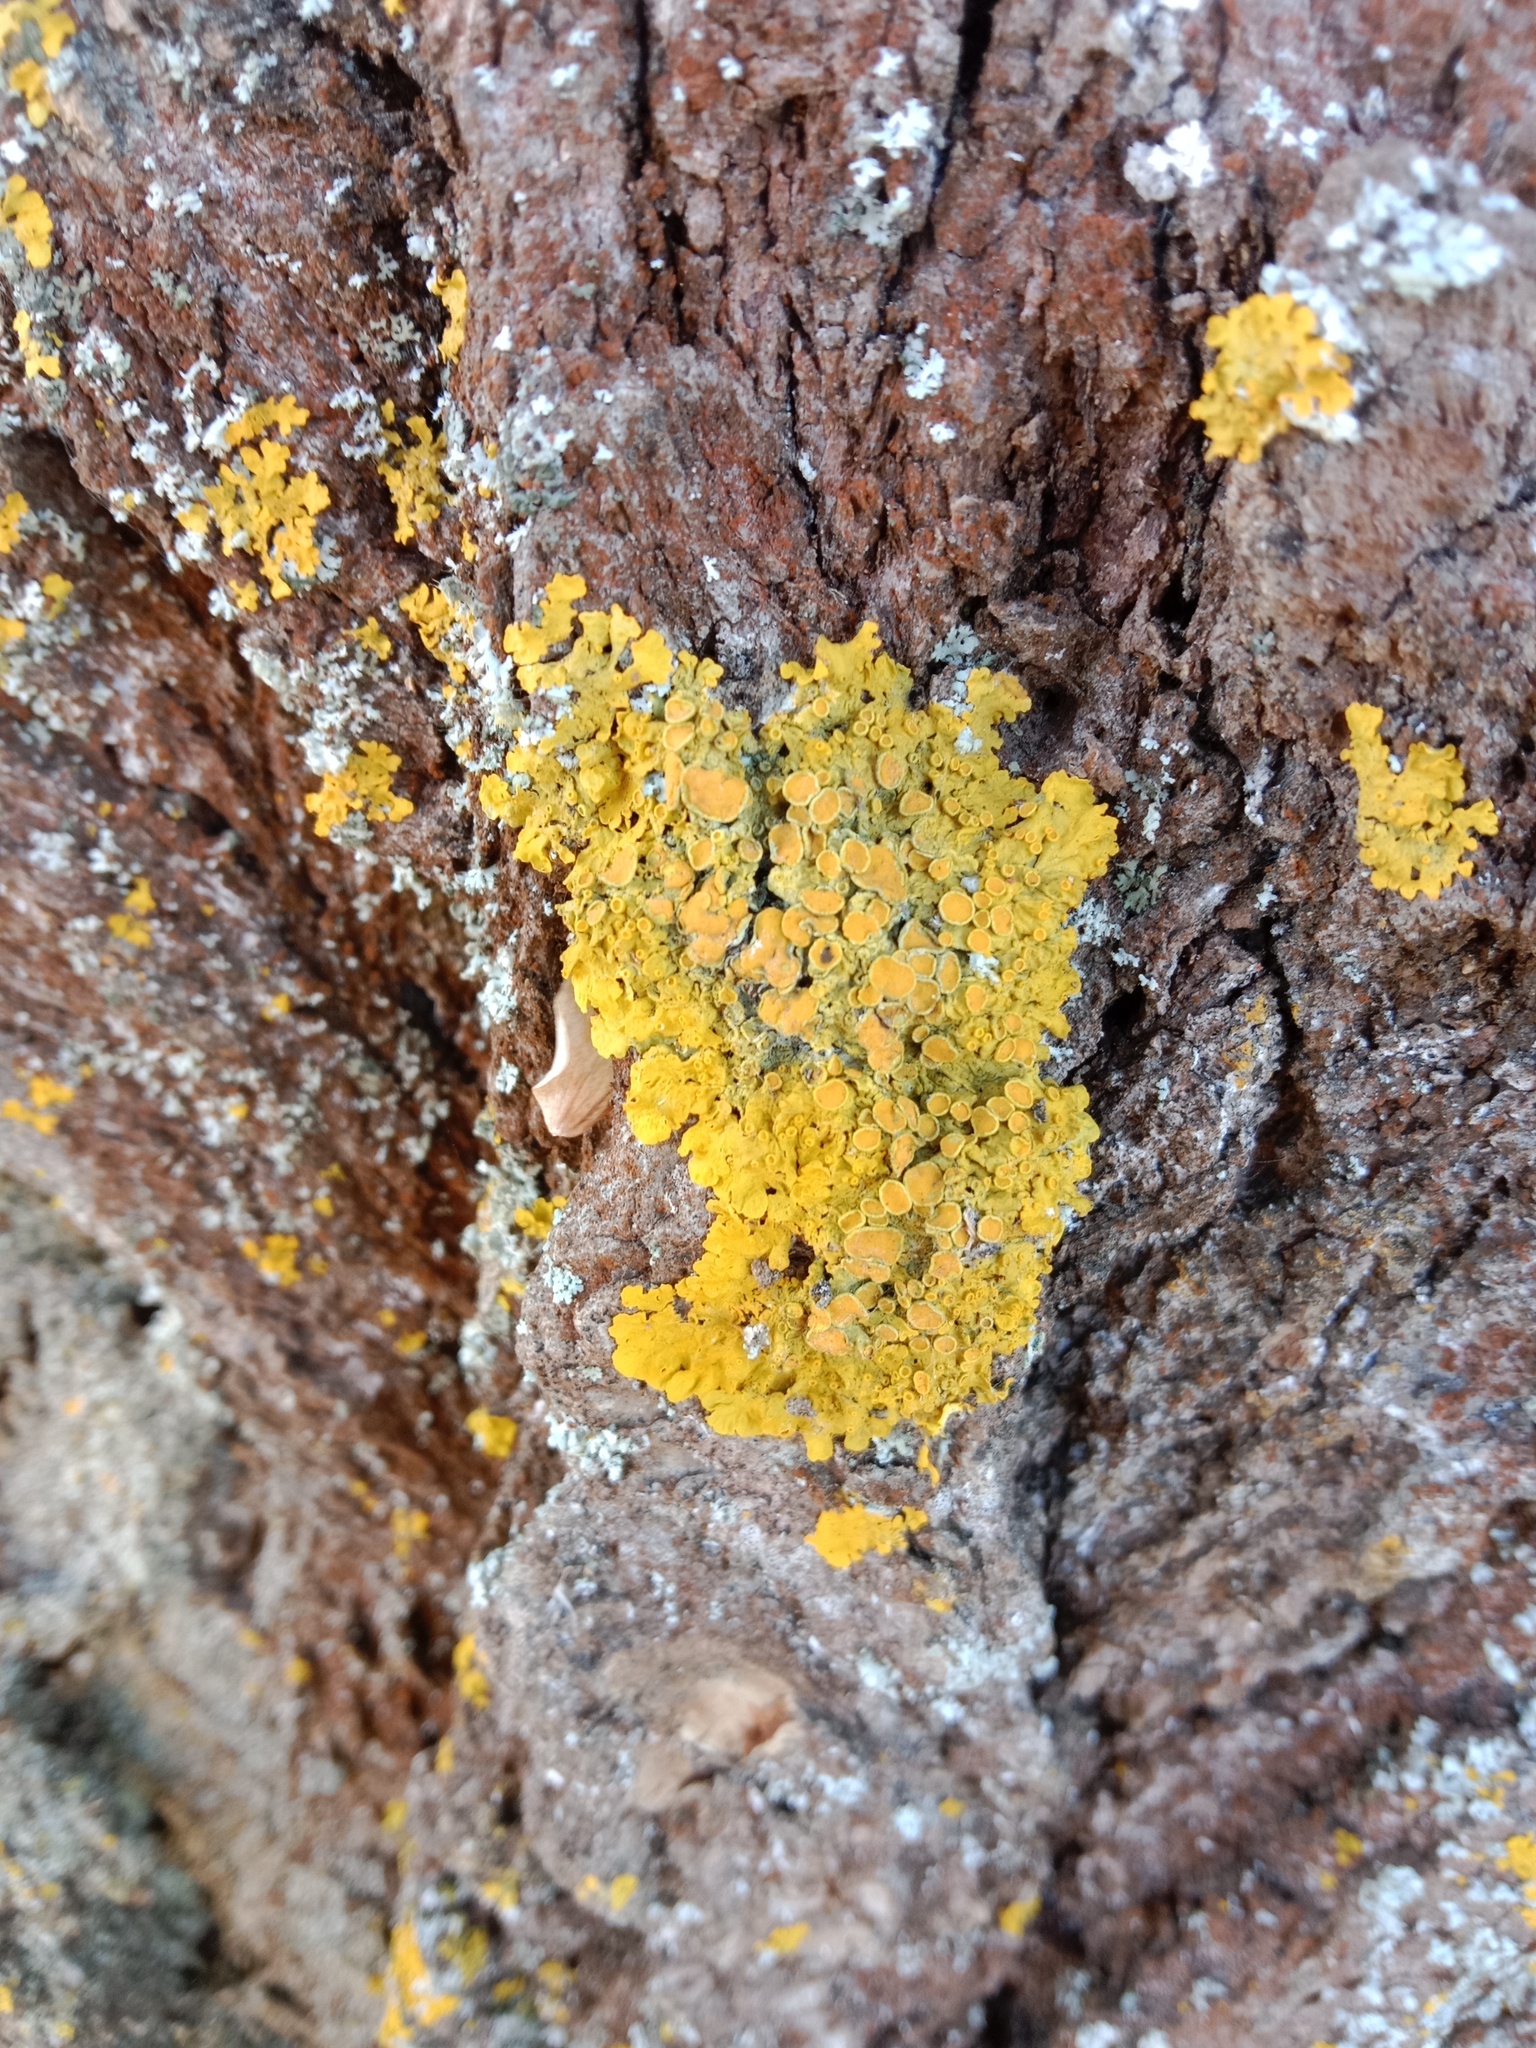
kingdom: Fungi
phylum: Ascomycota
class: Lecanoromycetes
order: Teloschistales
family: Teloschistaceae
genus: Xanthoria
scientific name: Xanthoria parietina
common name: Common orange lichen
